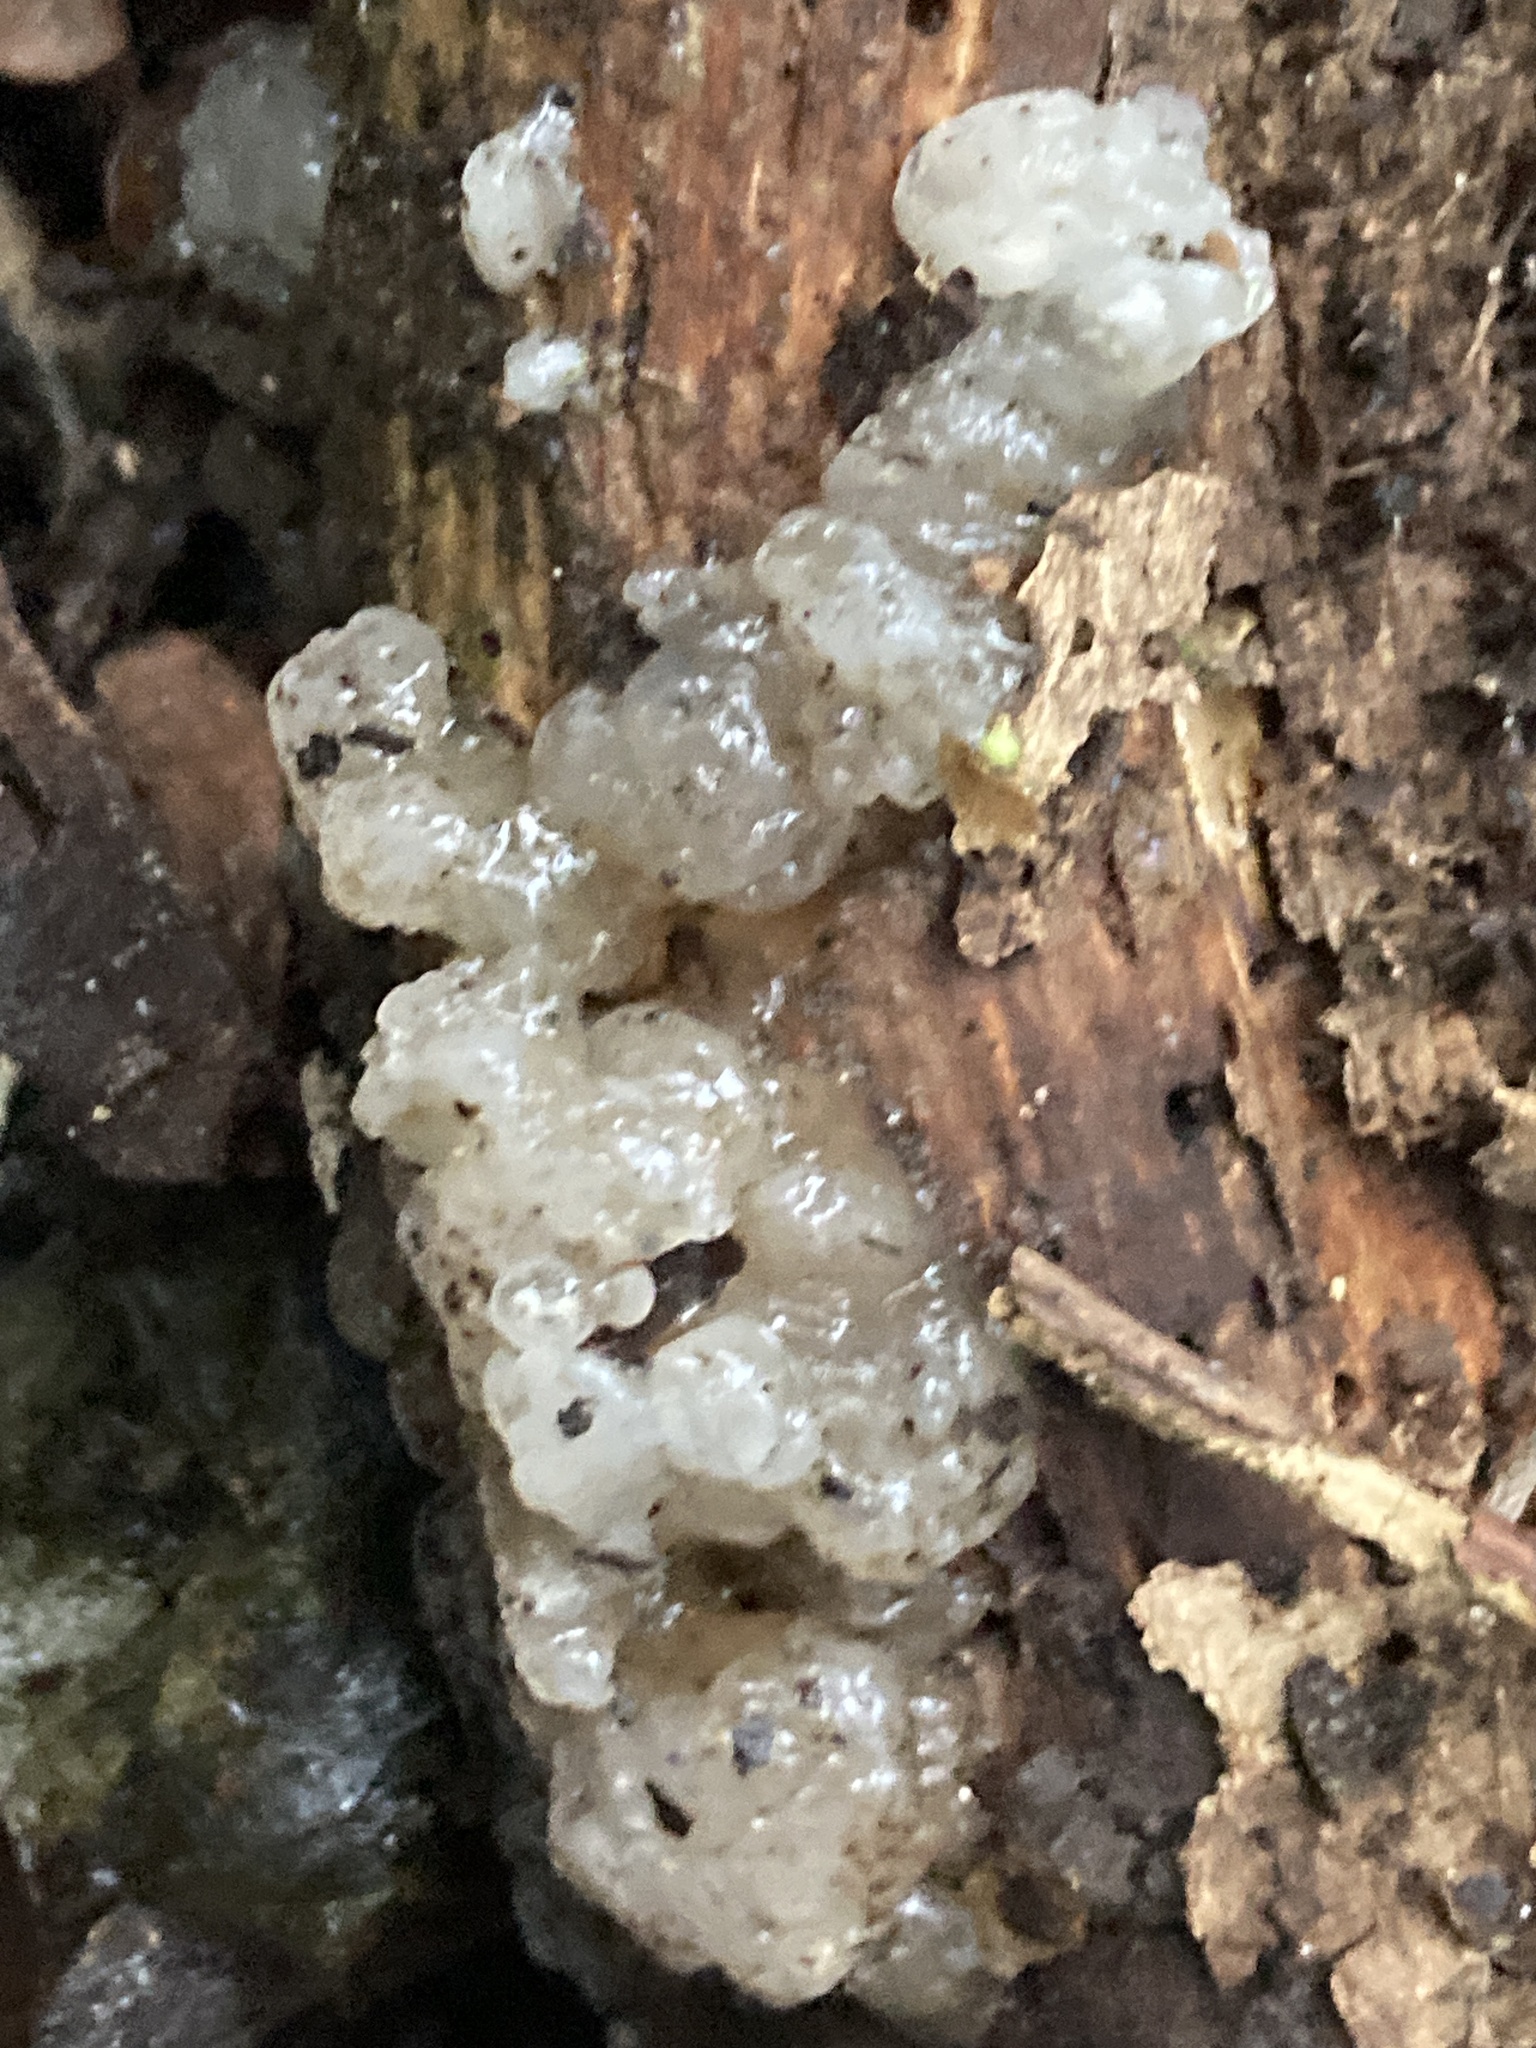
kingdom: Fungi
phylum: Basidiomycota
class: Agaricomycetes
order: Auriculariales
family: Hyaloriaceae
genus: Myxarium
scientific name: Myxarium nucleatum
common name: Crystal brain fungus
